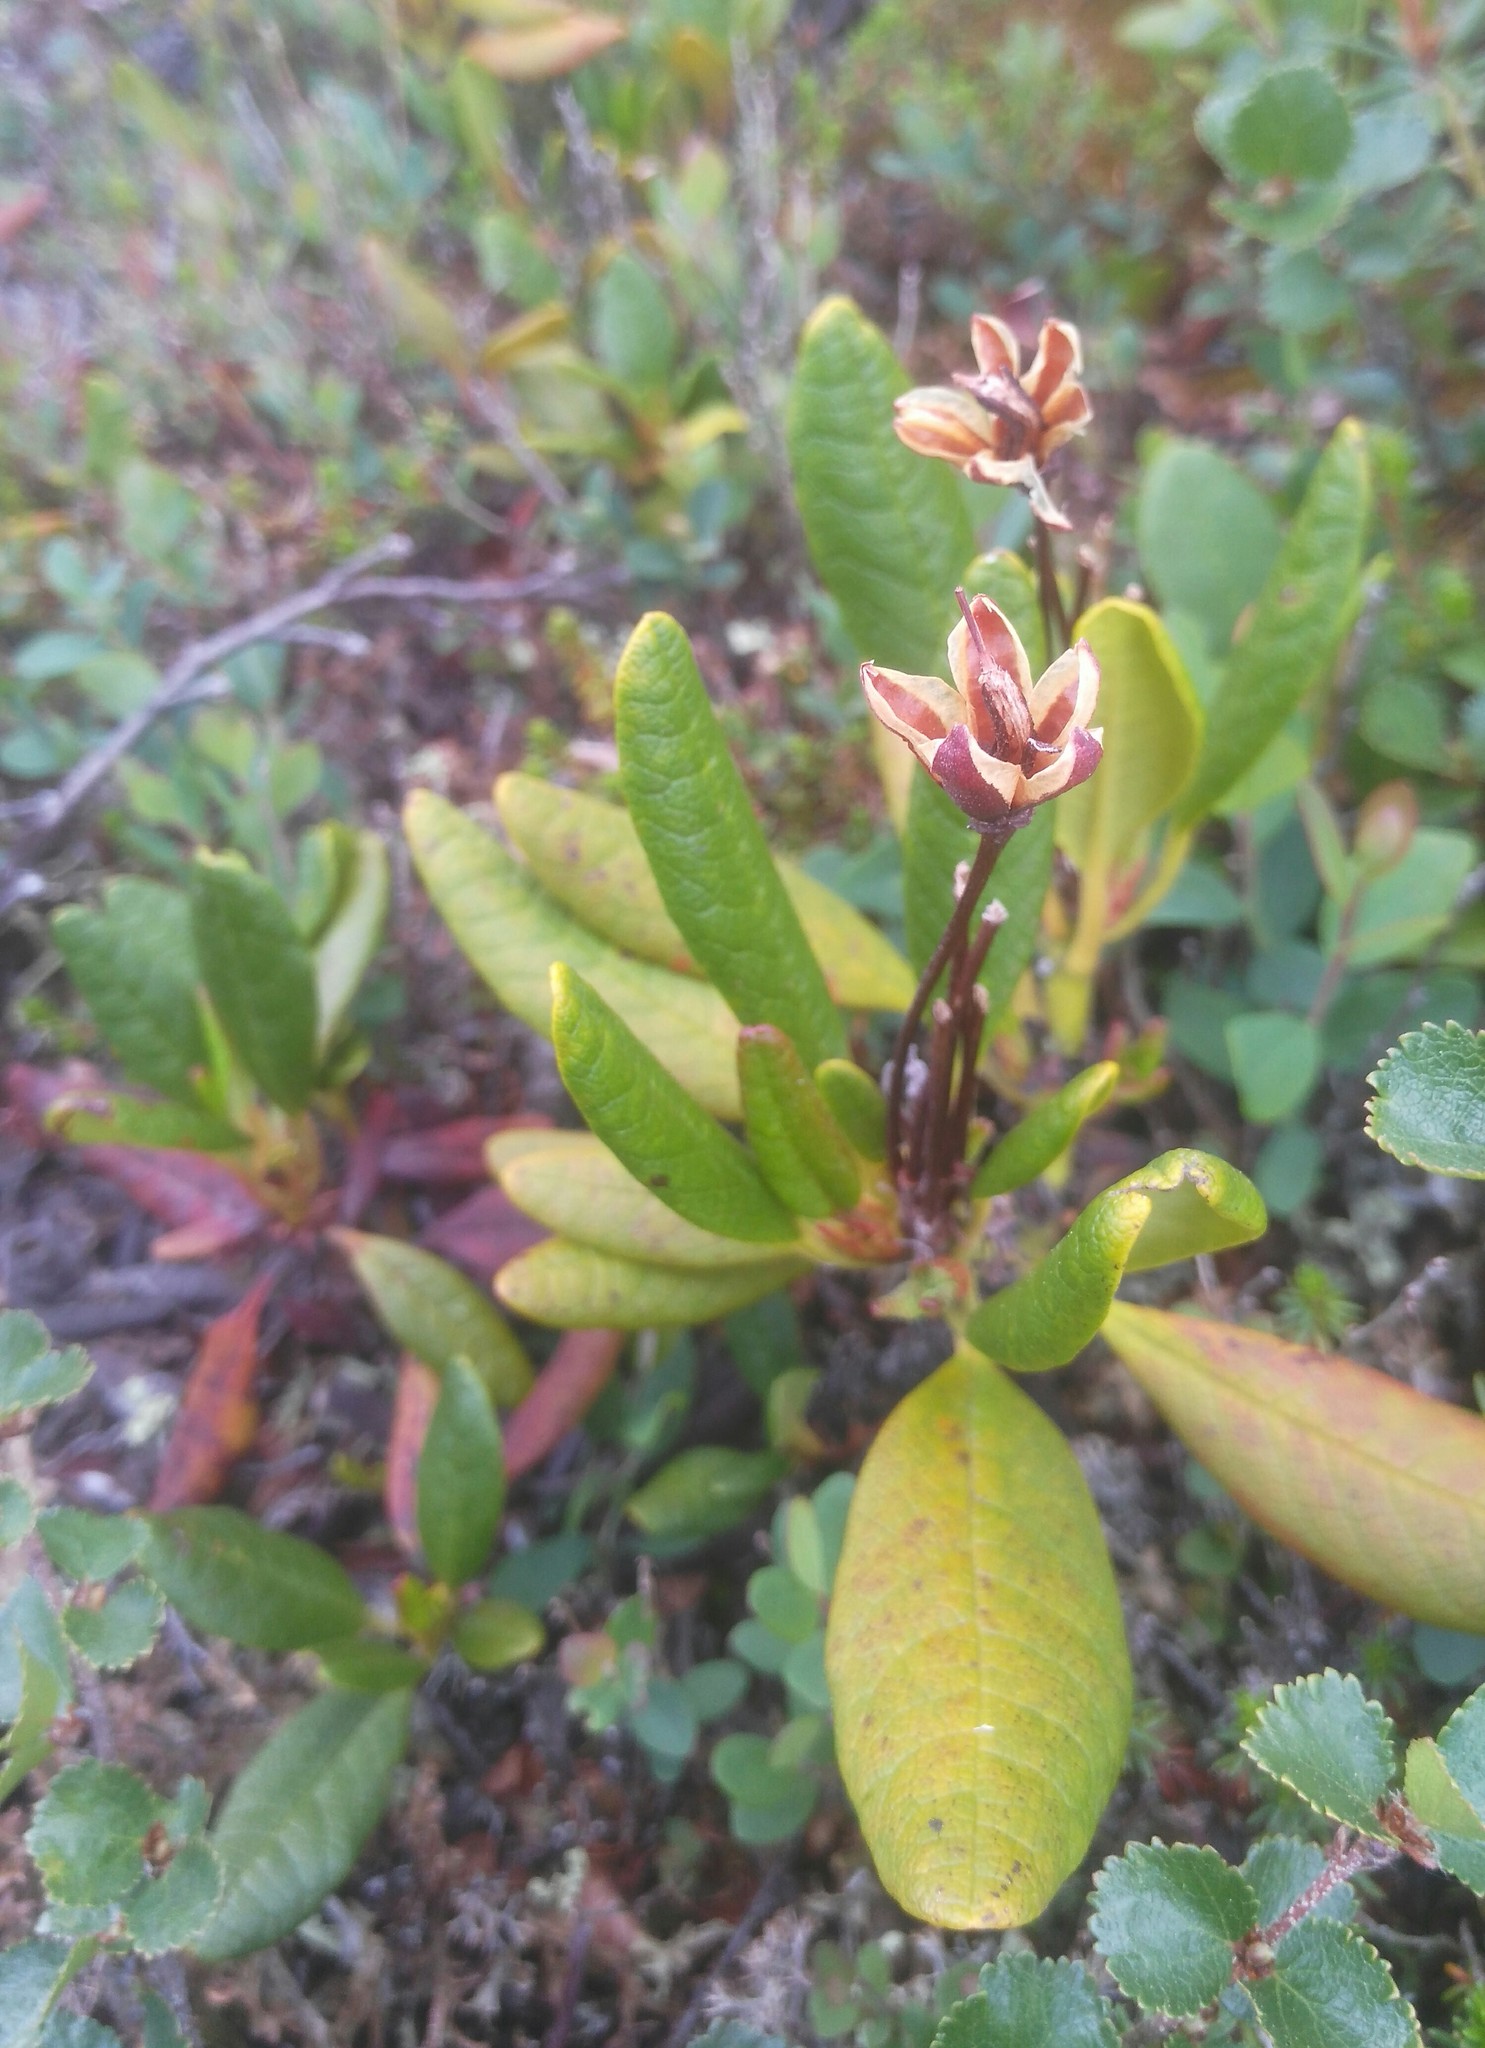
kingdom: Plantae
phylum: Tracheophyta
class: Magnoliopsida
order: Ericales
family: Ericaceae
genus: Rhododendron
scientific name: Rhododendron aureum
